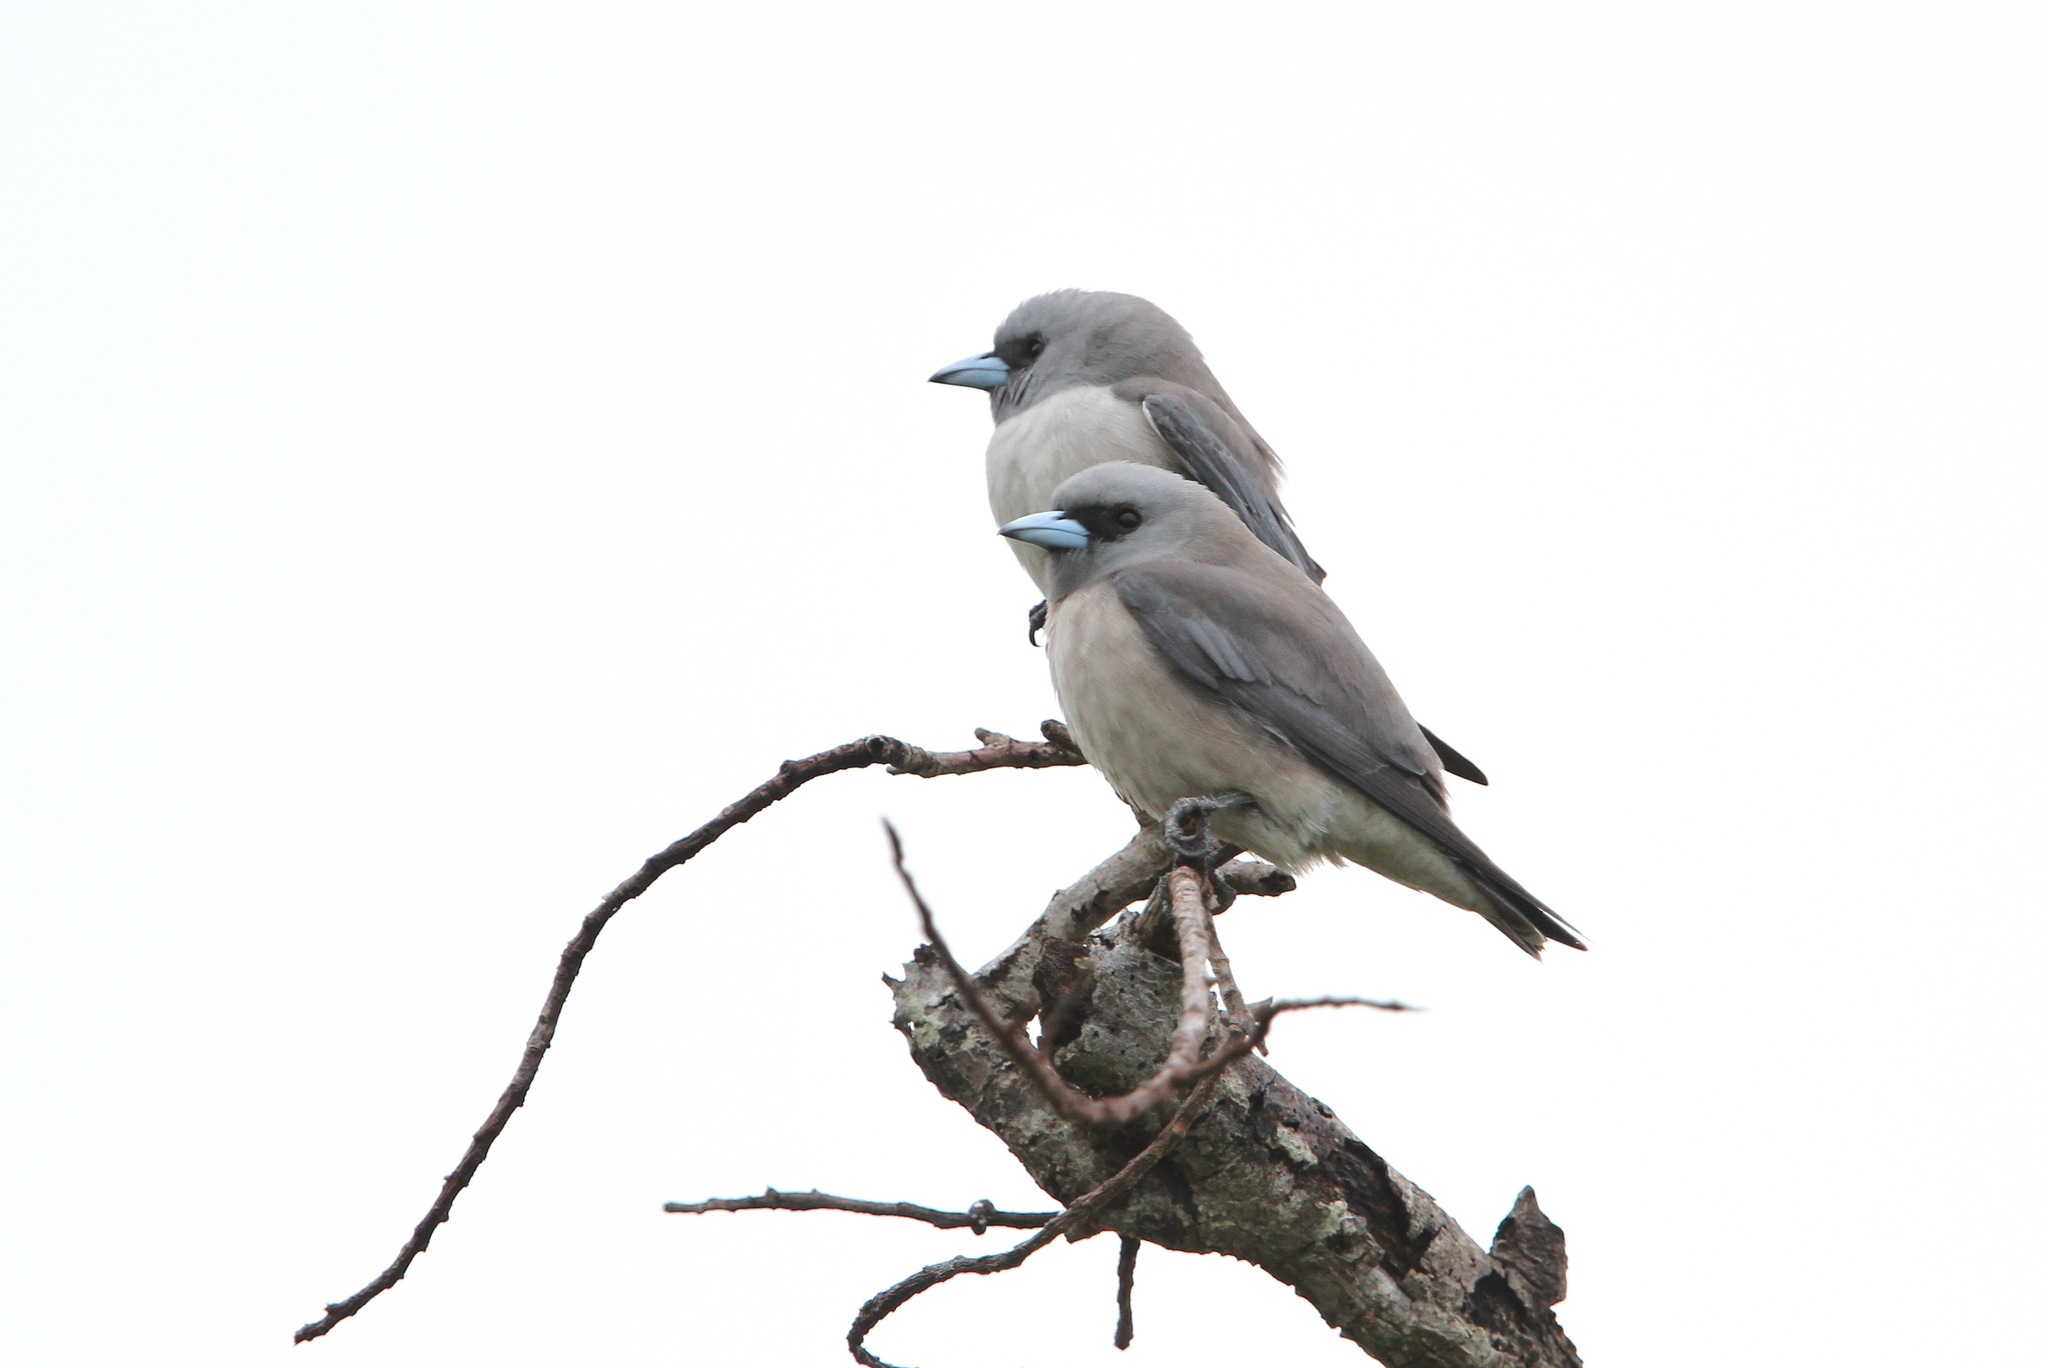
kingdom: Animalia
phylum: Chordata
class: Aves
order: Passeriformes
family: Artamidae
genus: Artamus
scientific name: Artamus fuscus
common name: Ashy woodswallow
